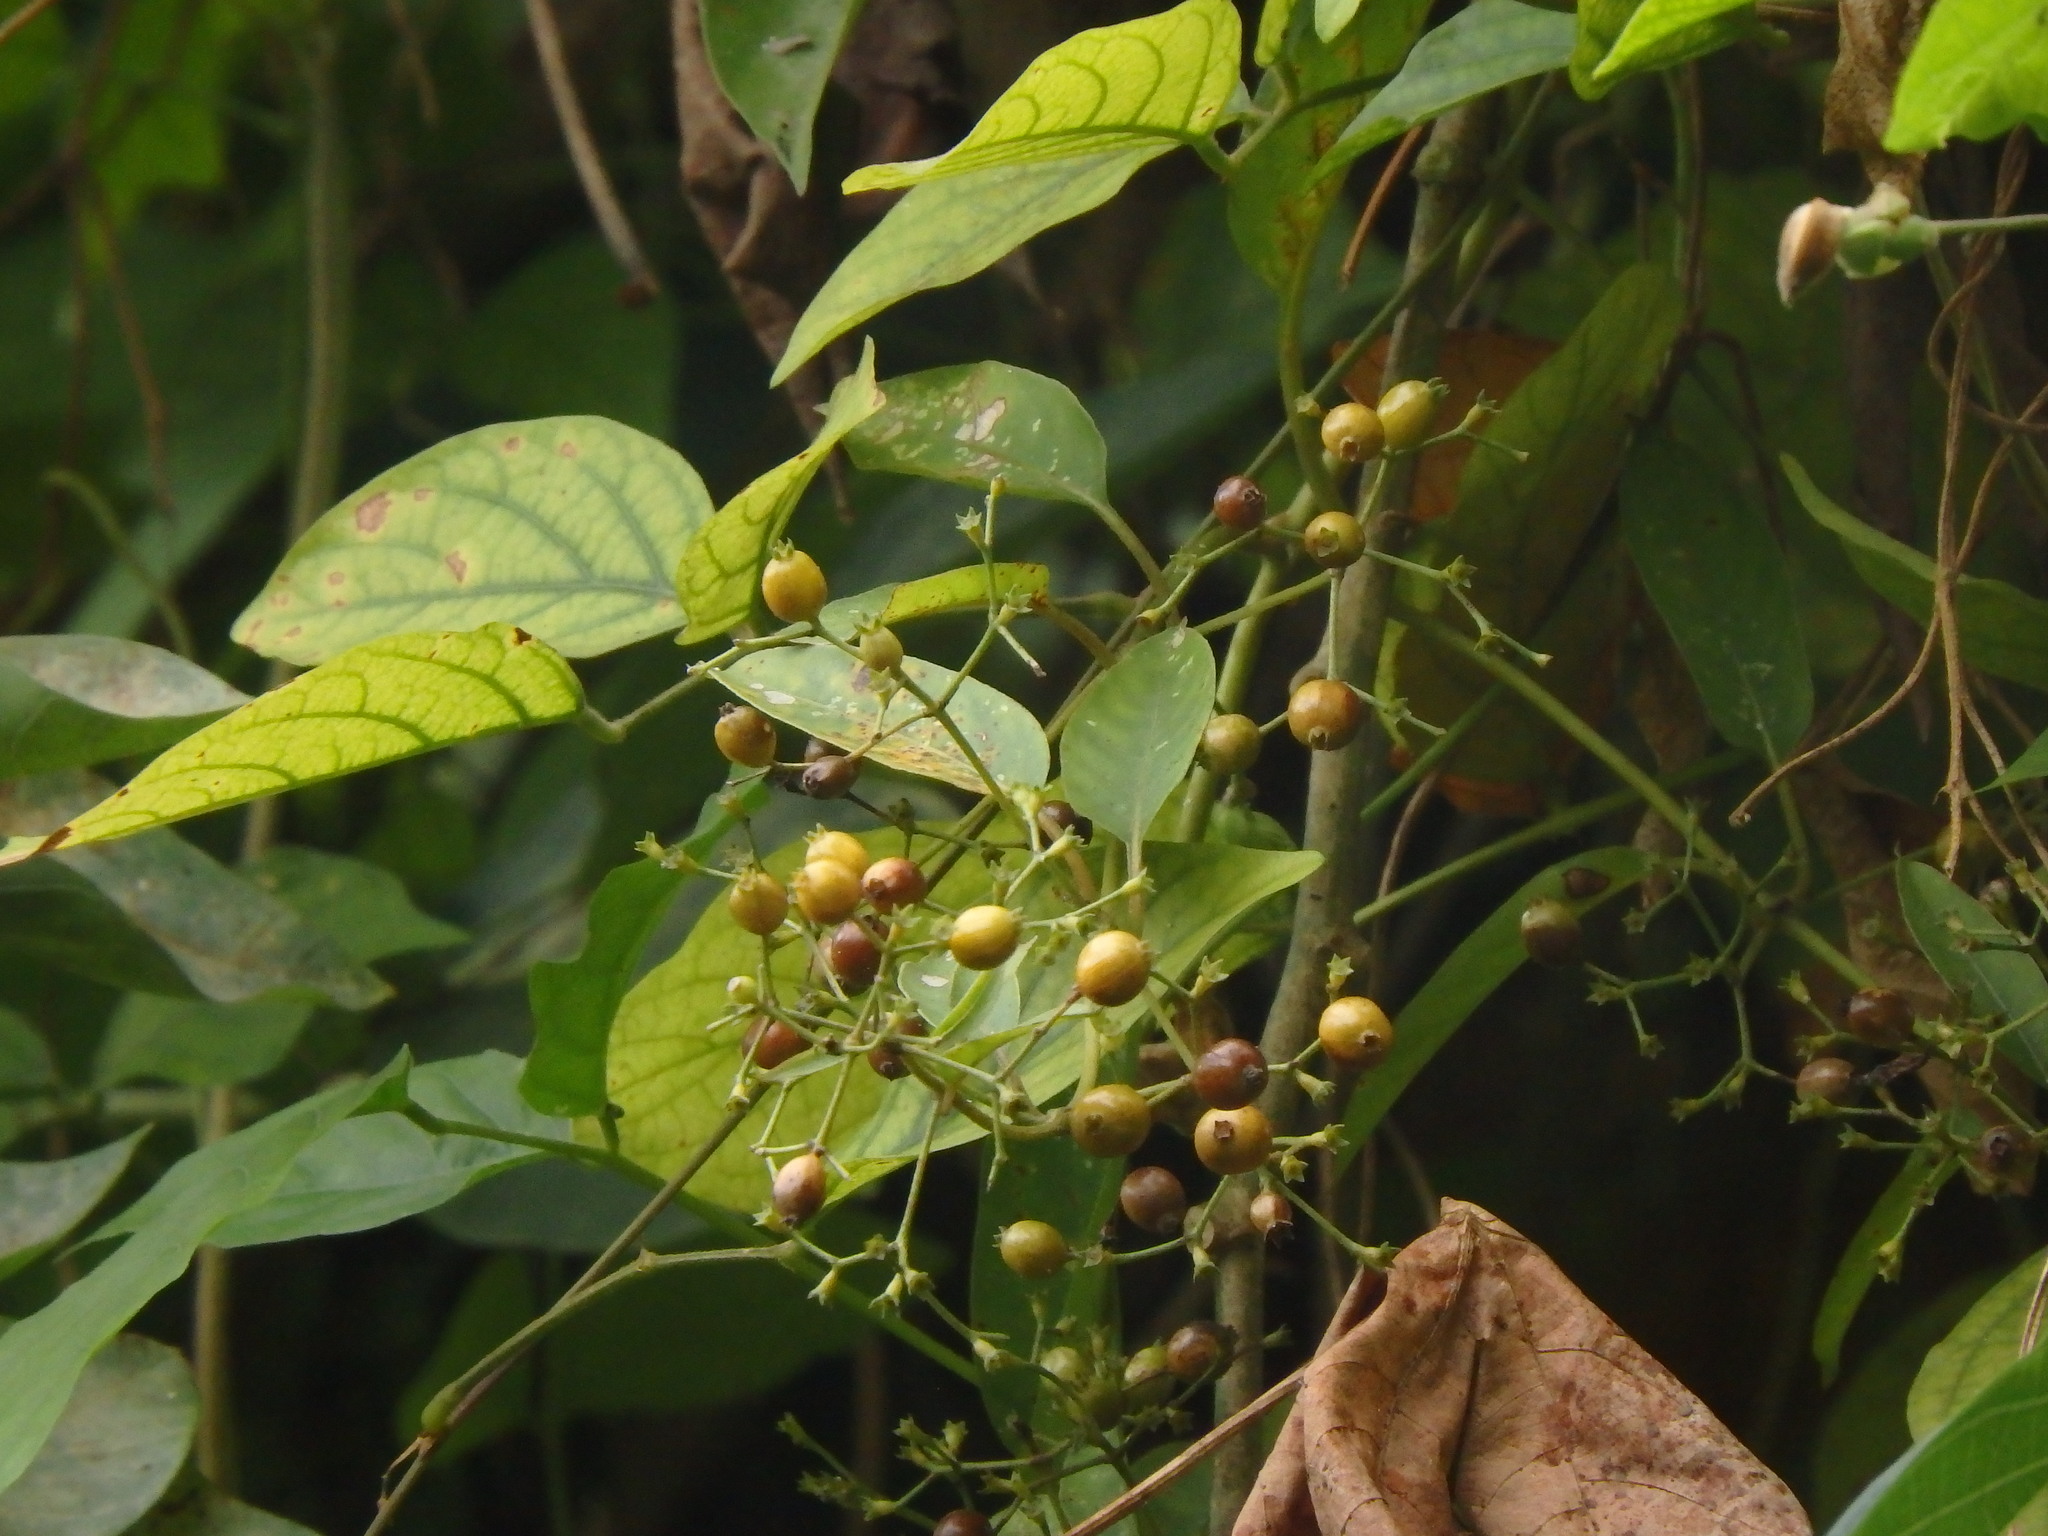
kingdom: Plantae
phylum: Tracheophyta
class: Magnoliopsida
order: Gentianales
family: Rubiaceae
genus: Paederia
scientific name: Paederia foetida
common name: Stinkvine
